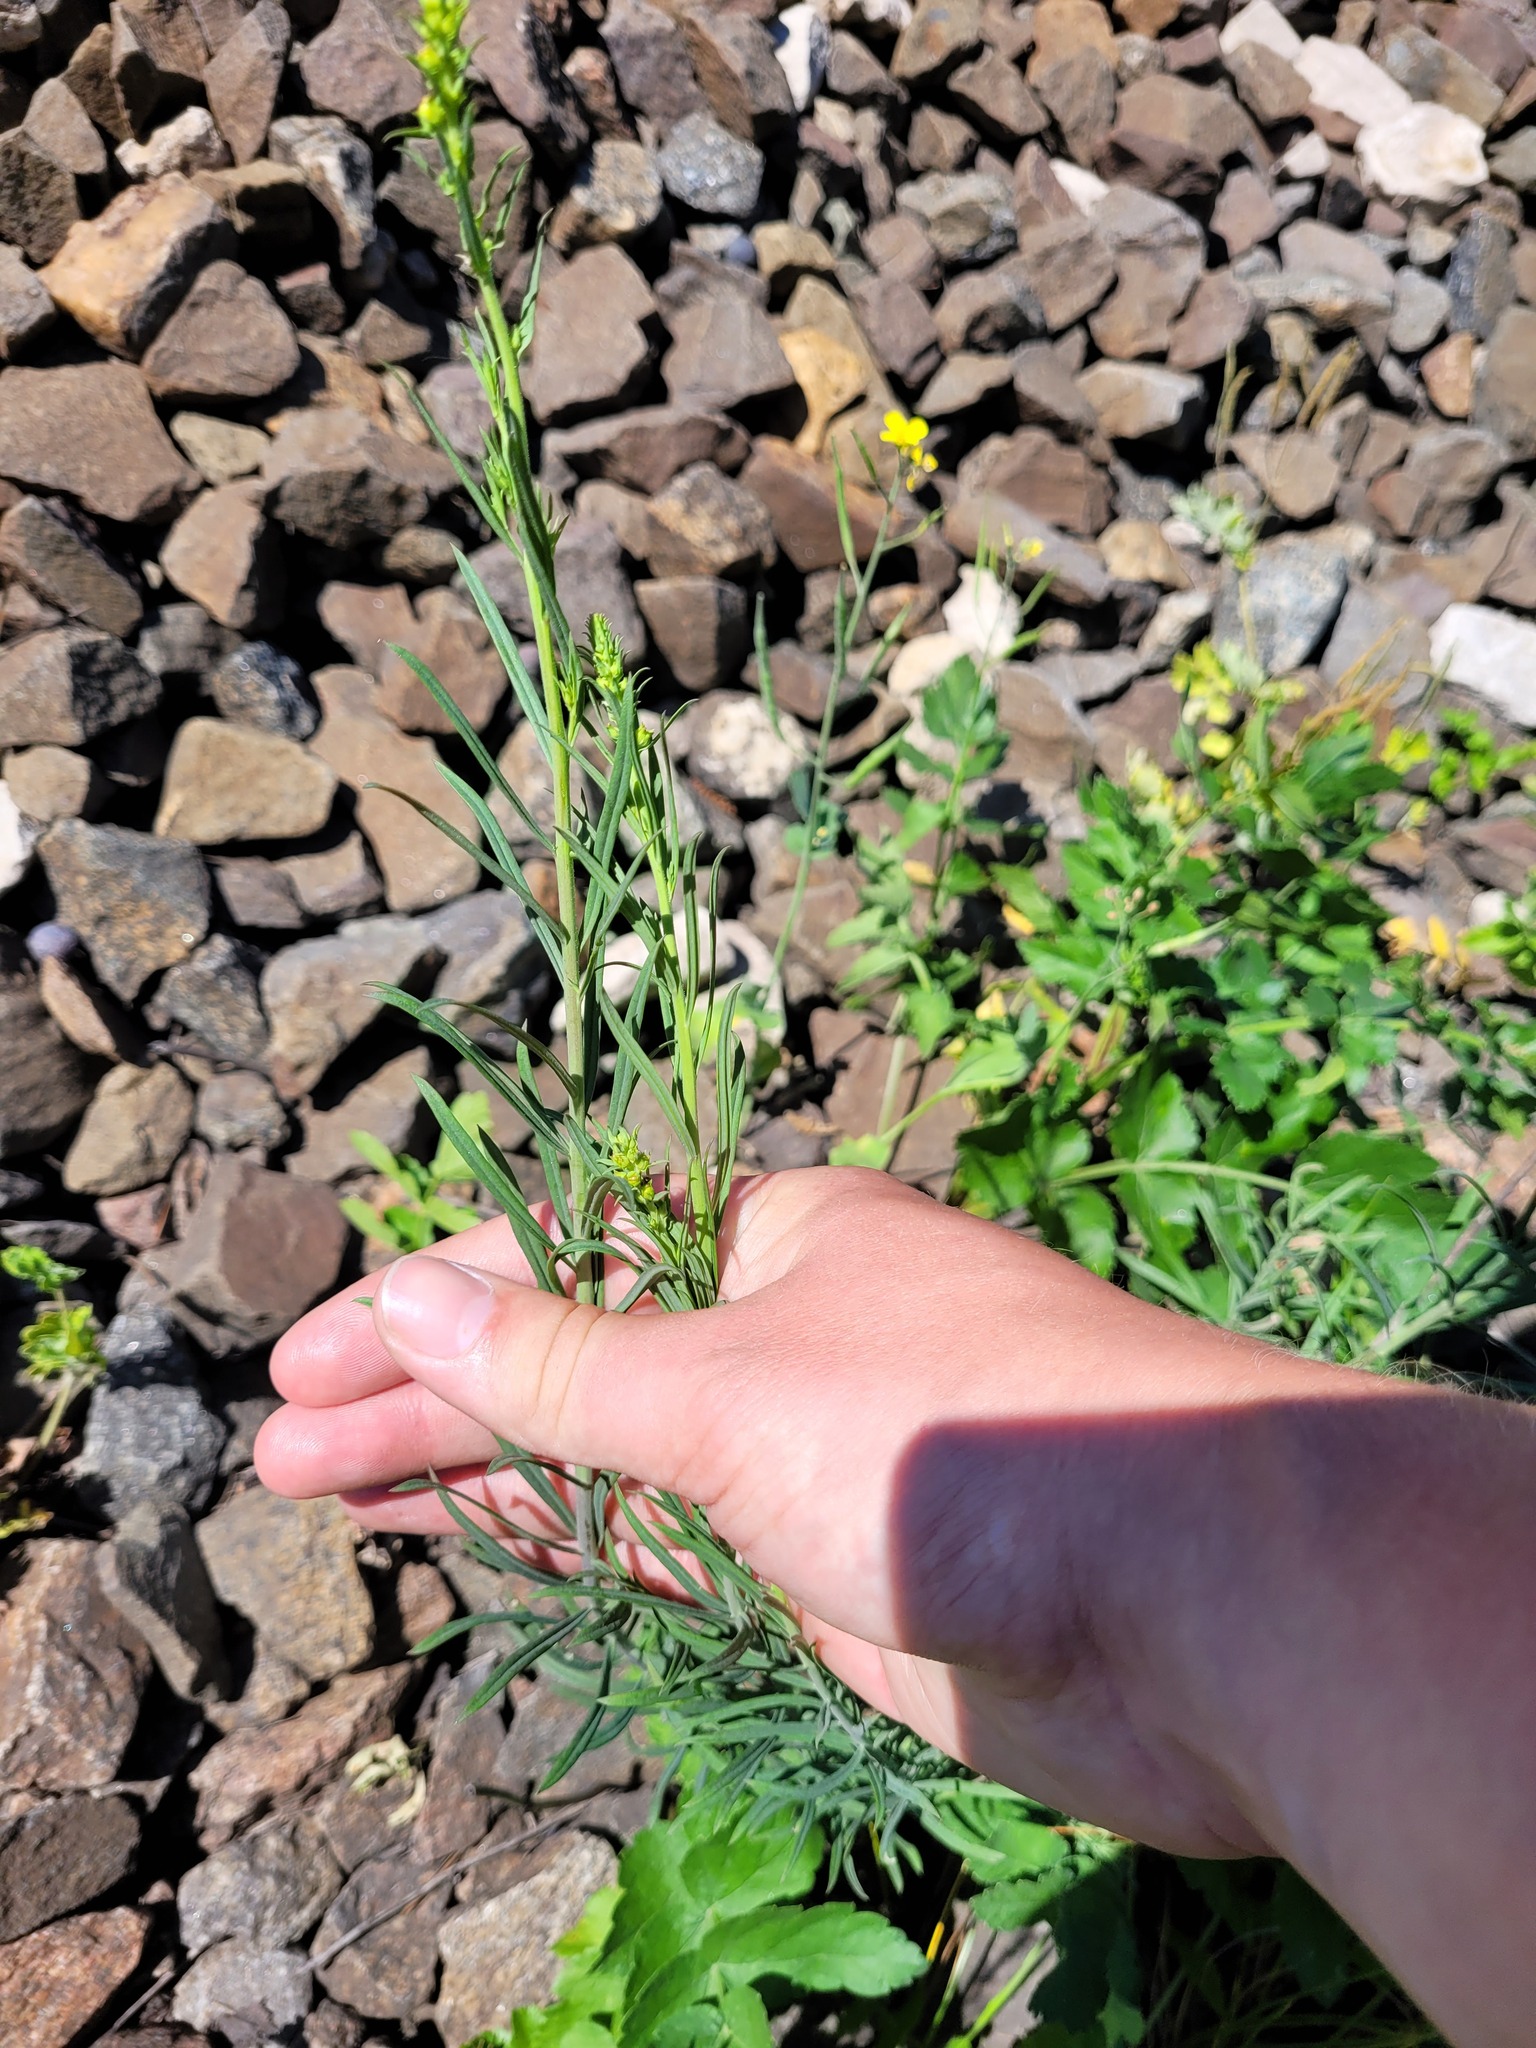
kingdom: Plantae
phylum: Tracheophyta
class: Magnoliopsida
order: Lamiales
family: Plantaginaceae
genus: Linaria
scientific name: Linaria vulgaris
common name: Butter and eggs
